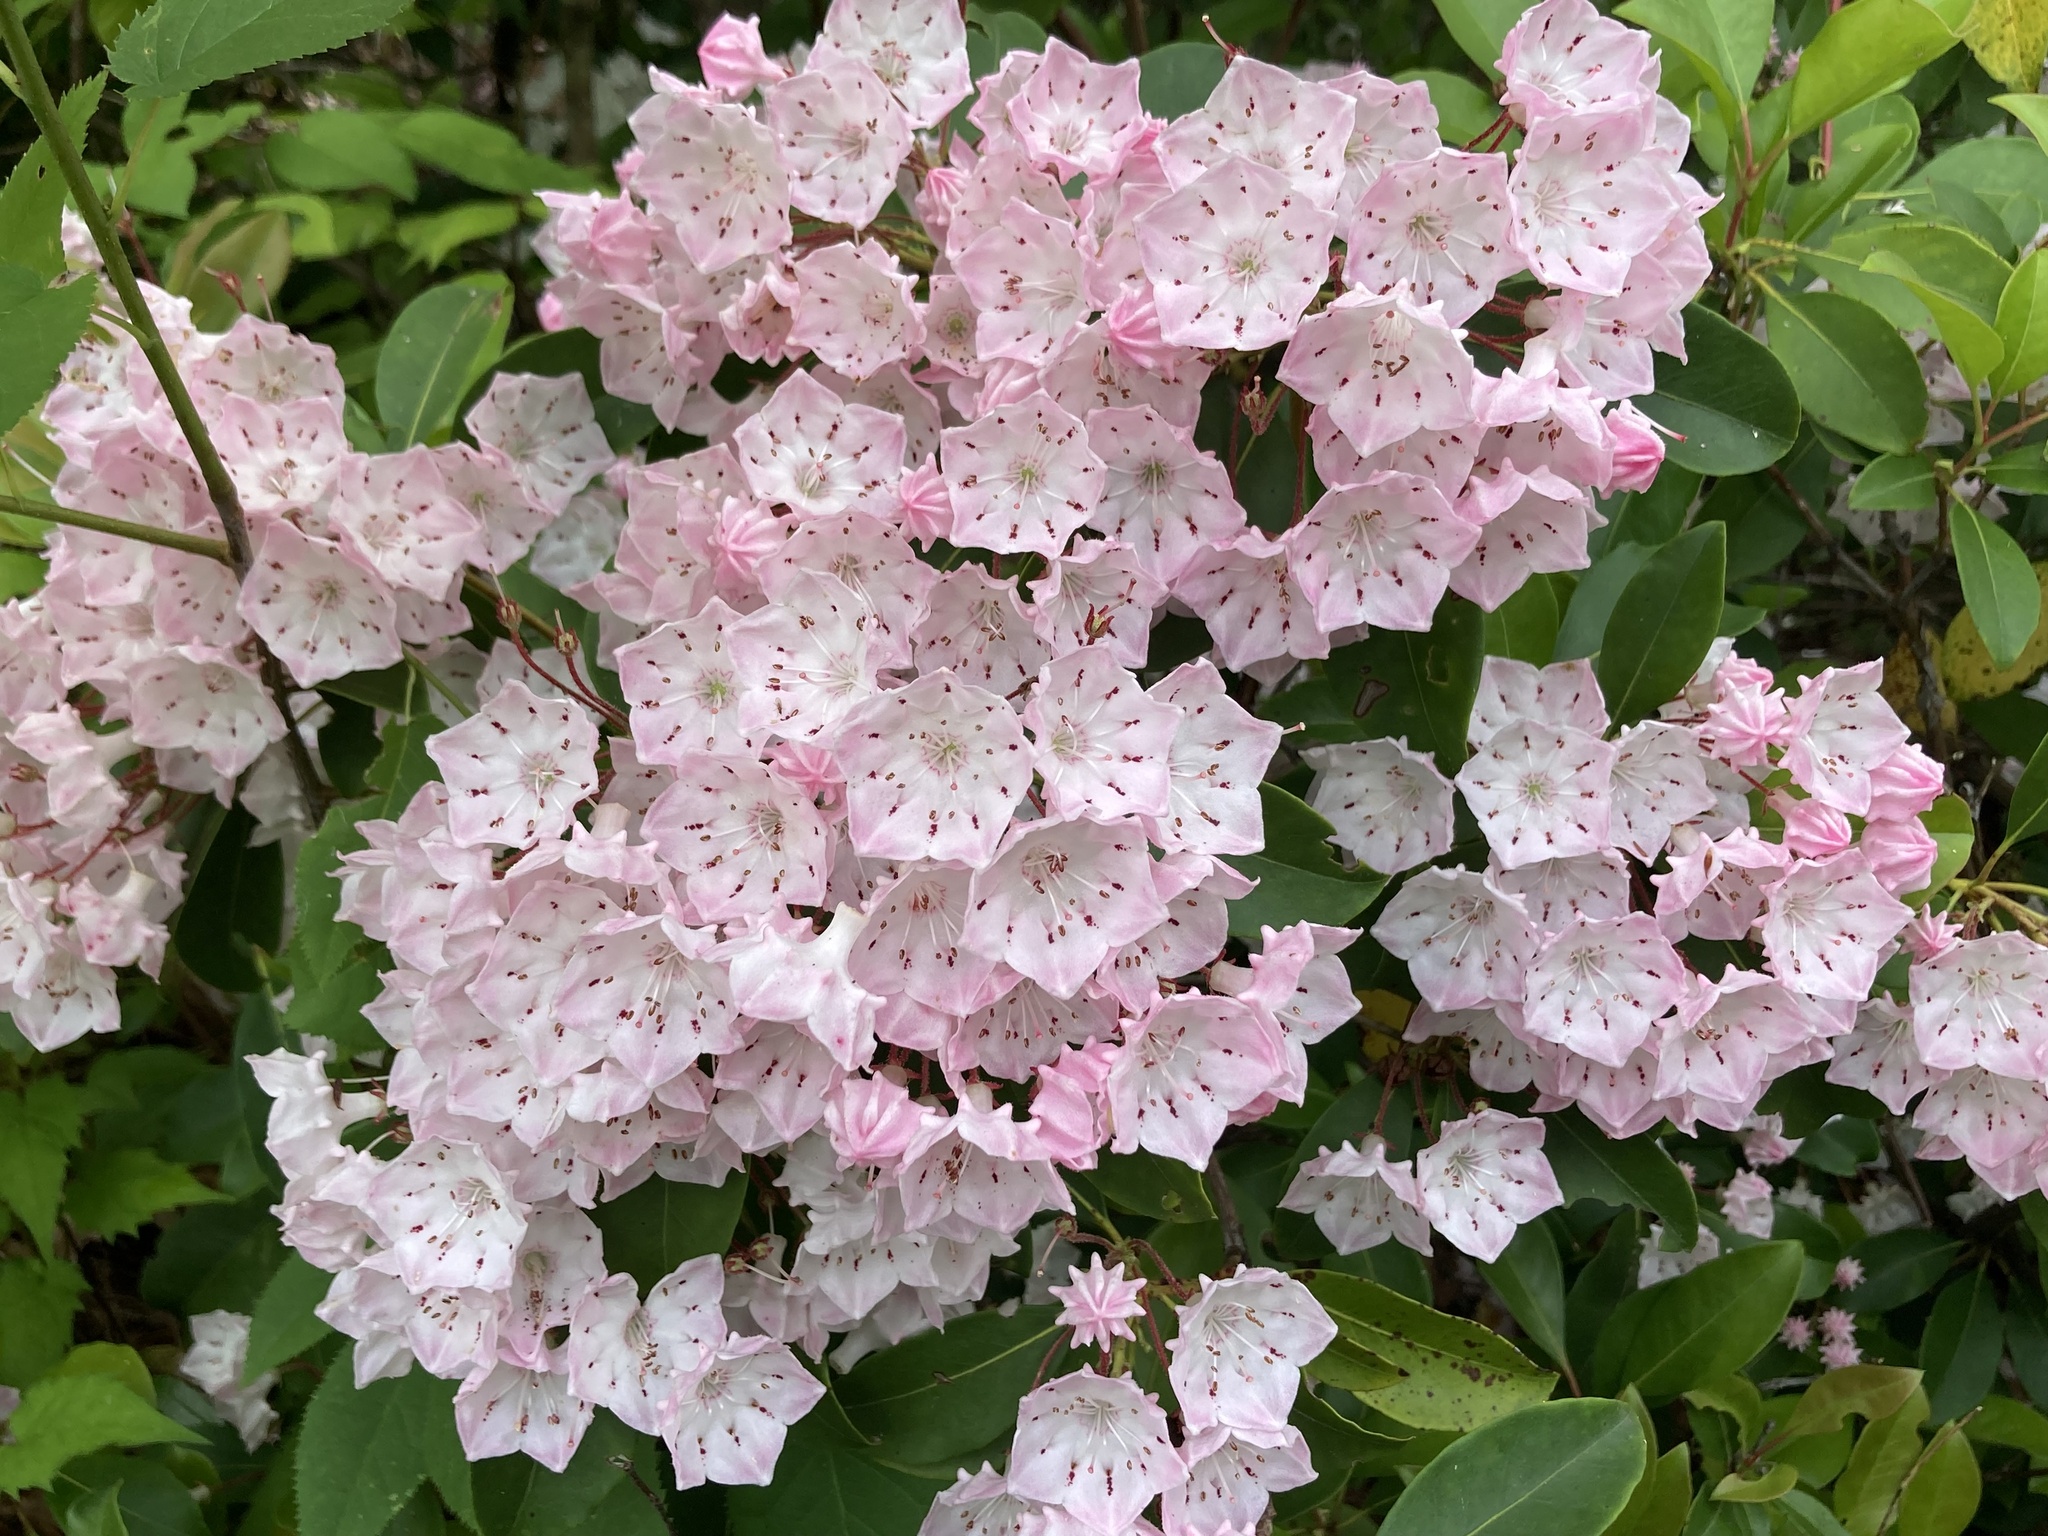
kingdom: Plantae
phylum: Tracheophyta
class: Magnoliopsida
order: Ericales
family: Ericaceae
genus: Kalmia
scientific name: Kalmia latifolia
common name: Mountain-laurel
